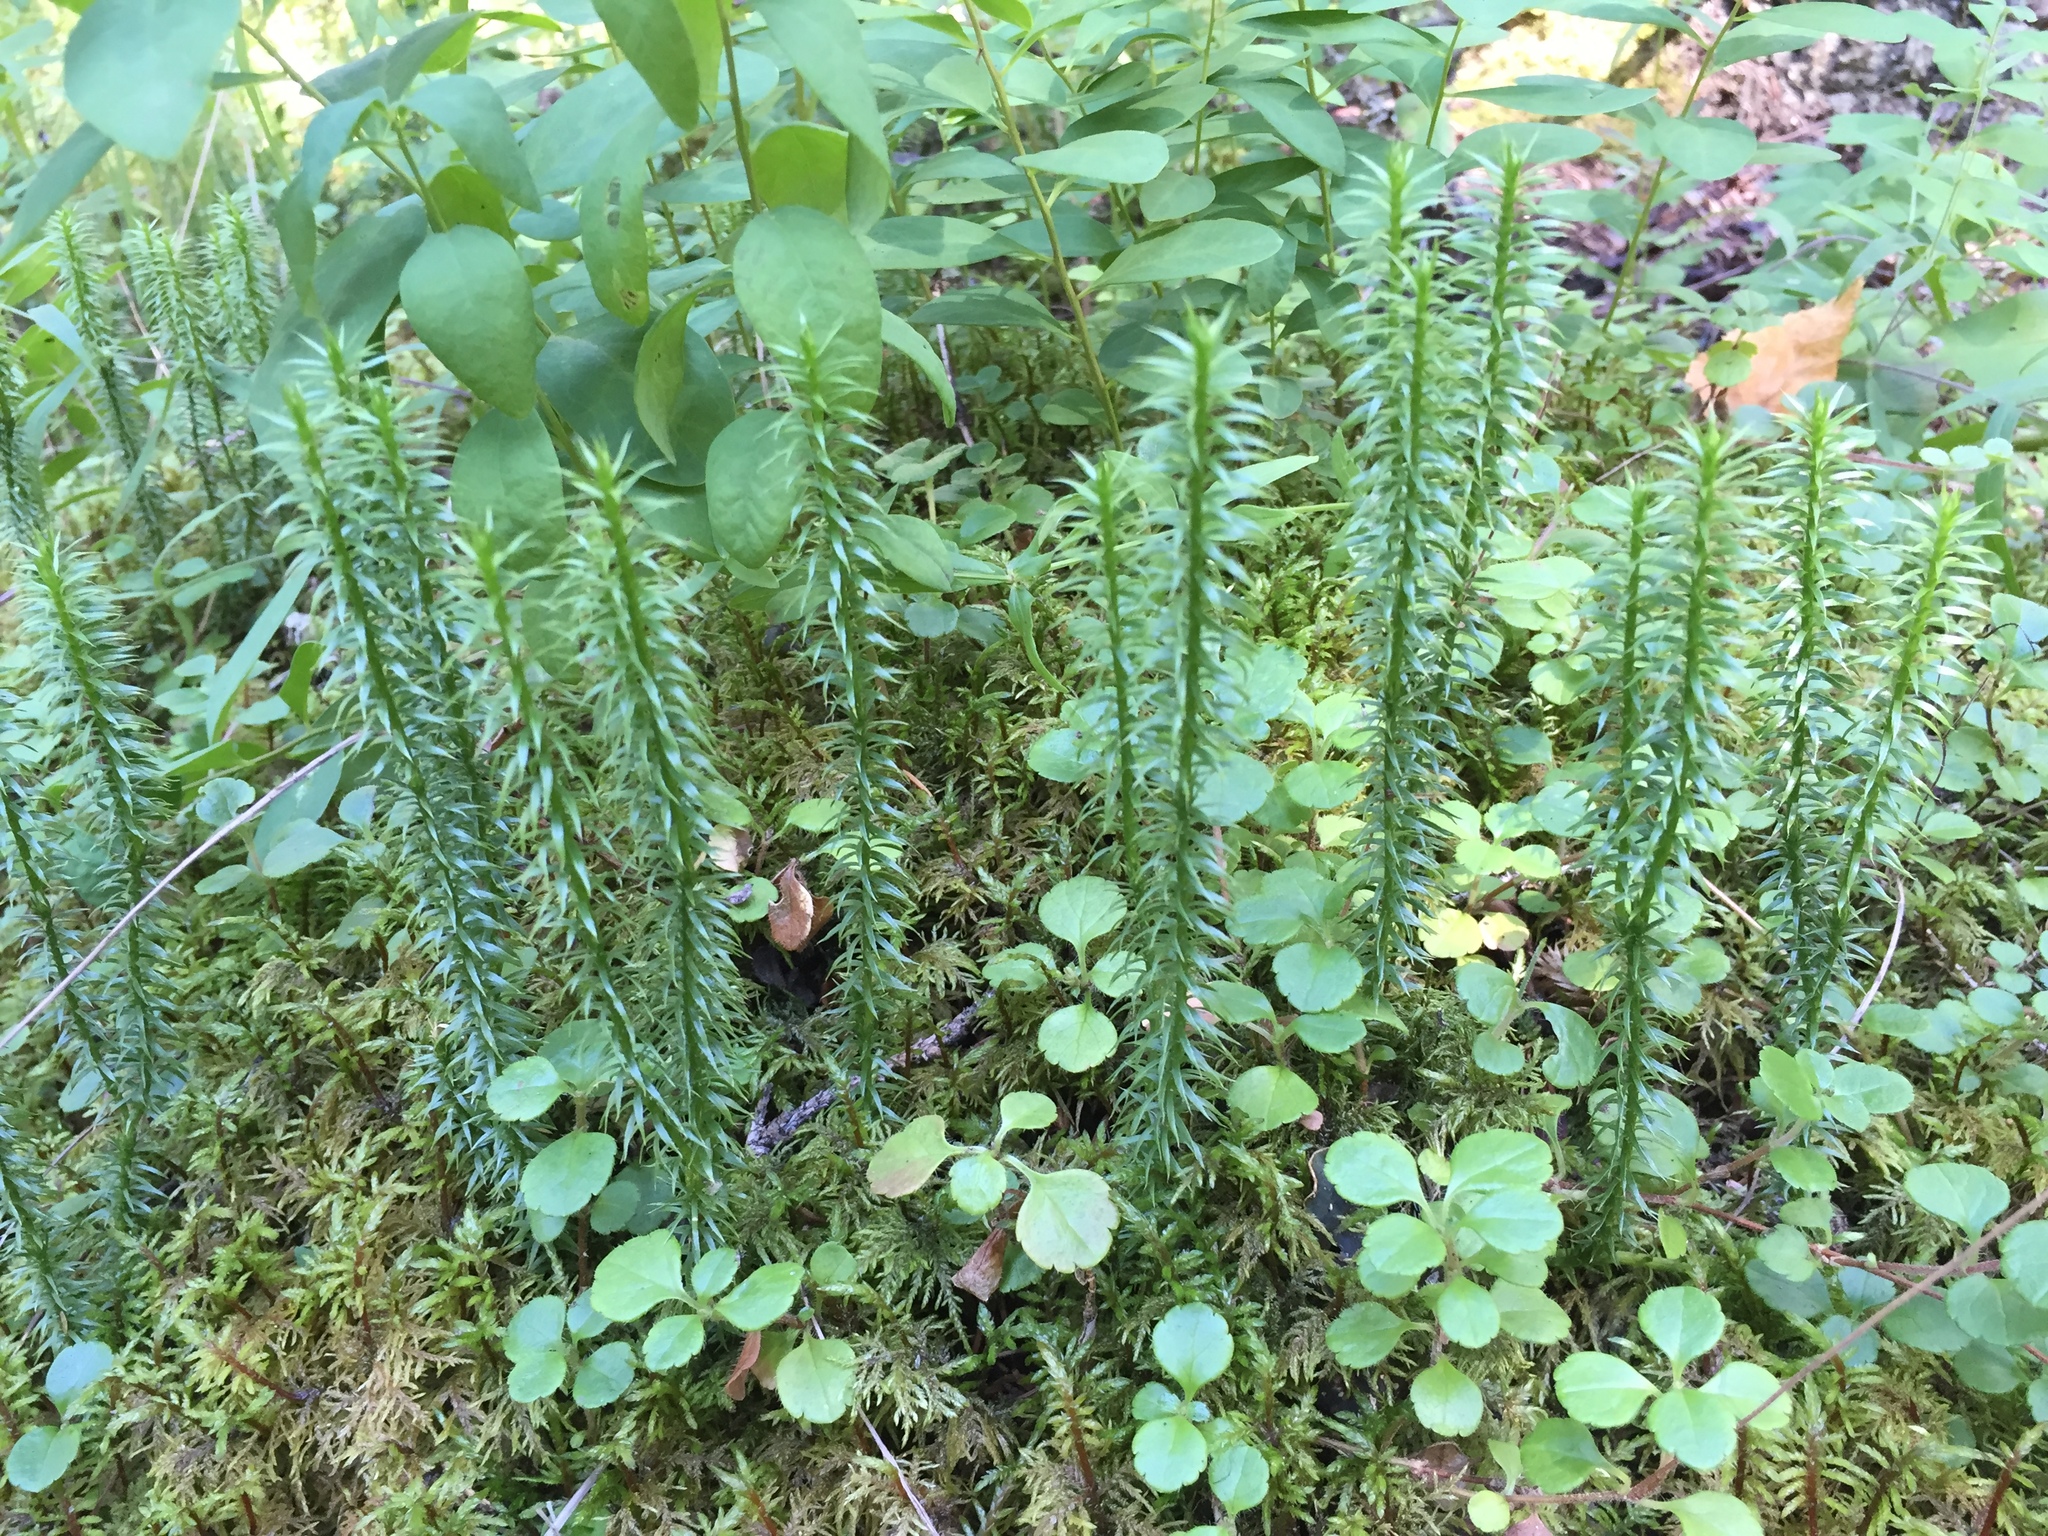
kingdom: Plantae
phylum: Tracheophyta
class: Lycopodiopsida
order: Lycopodiales
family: Lycopodiaceae
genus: Spinulum
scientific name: Spinulum annotinum
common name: Interrupted club-moss
